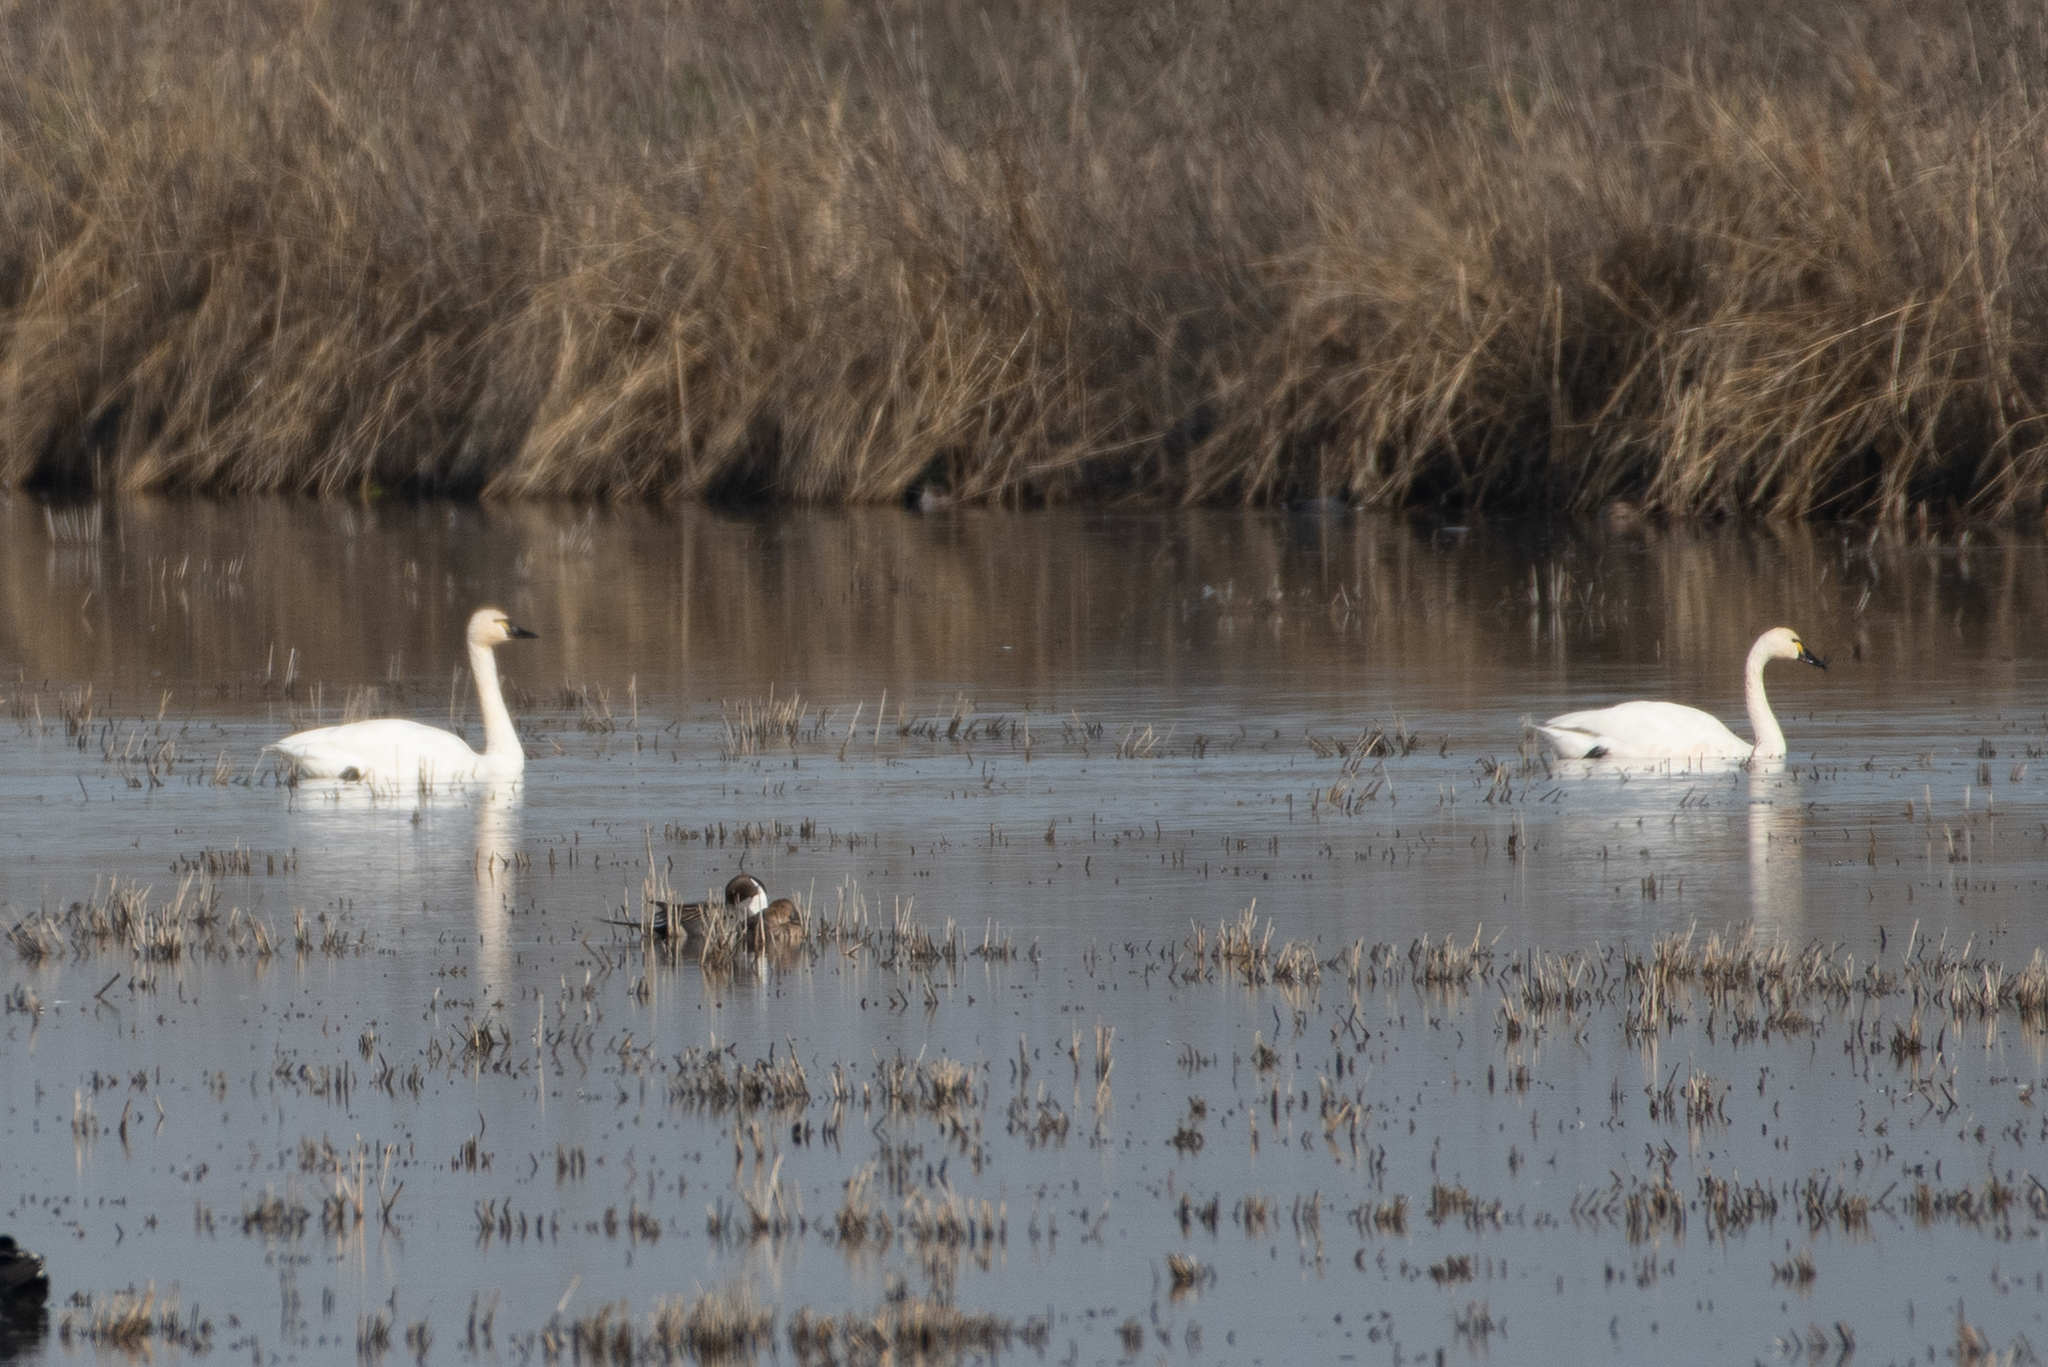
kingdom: Animalia
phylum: Chordata
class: Aves
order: Anseriformes
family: Anatidae
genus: Cygnus
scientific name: Cygnus columbianus
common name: Tundra swan
